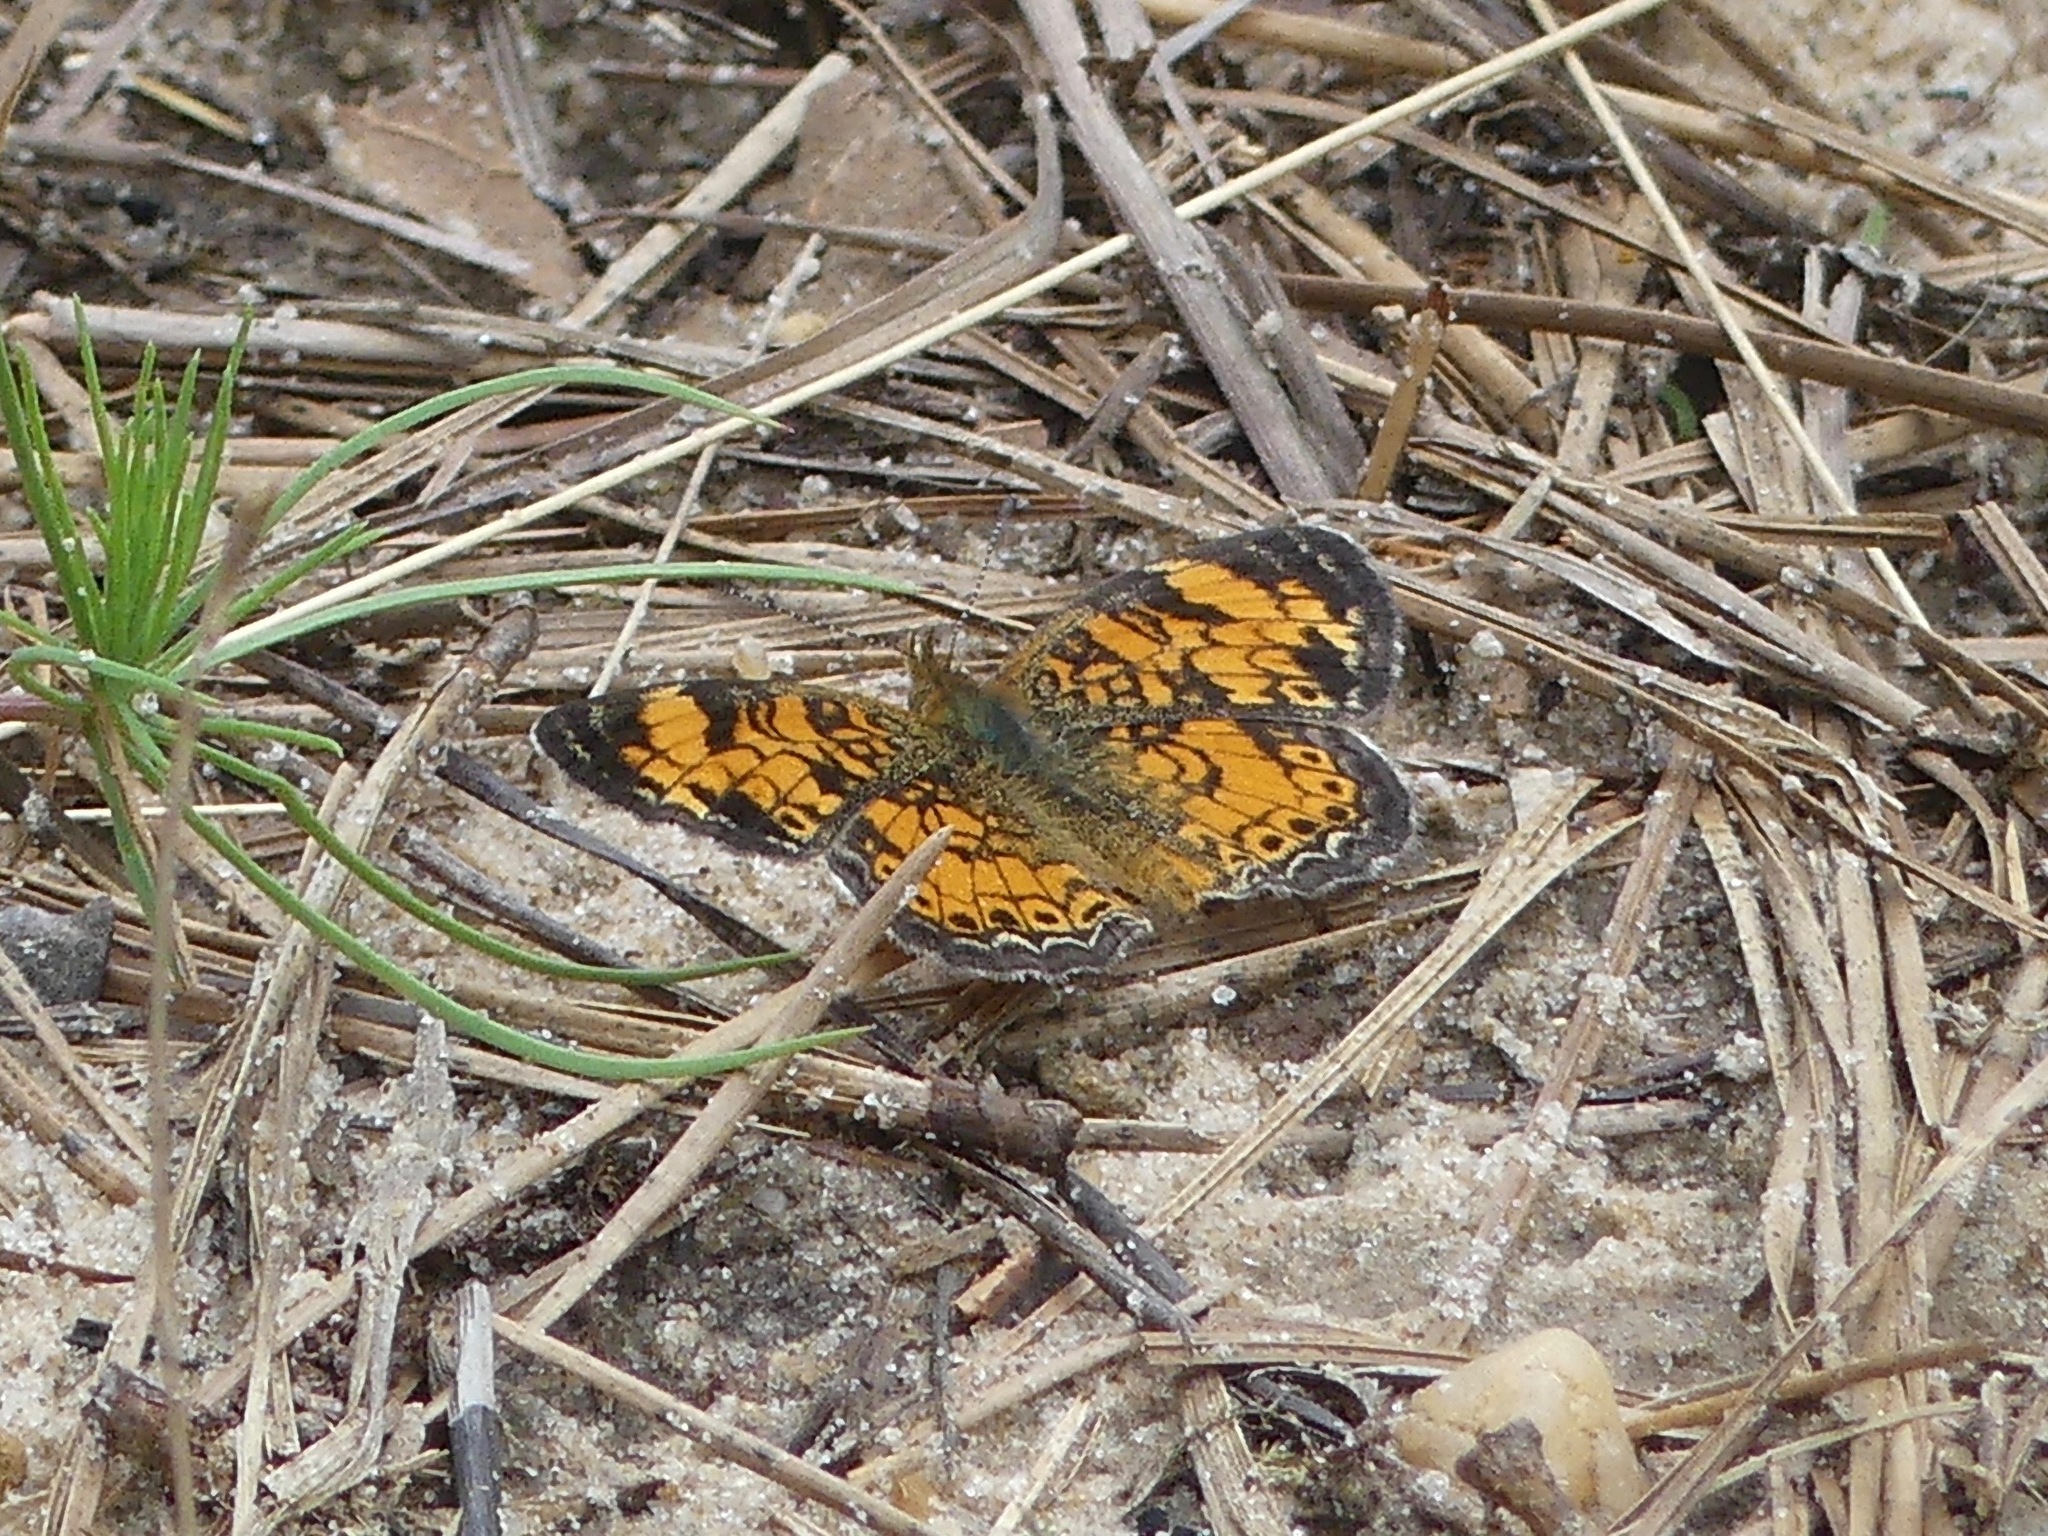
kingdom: Animalia
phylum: Arthropoda
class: Insecta
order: Lepidoptera
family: Nymphalidae
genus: Phyciodes
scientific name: Phyciodes tharos
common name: Pearl crescent
